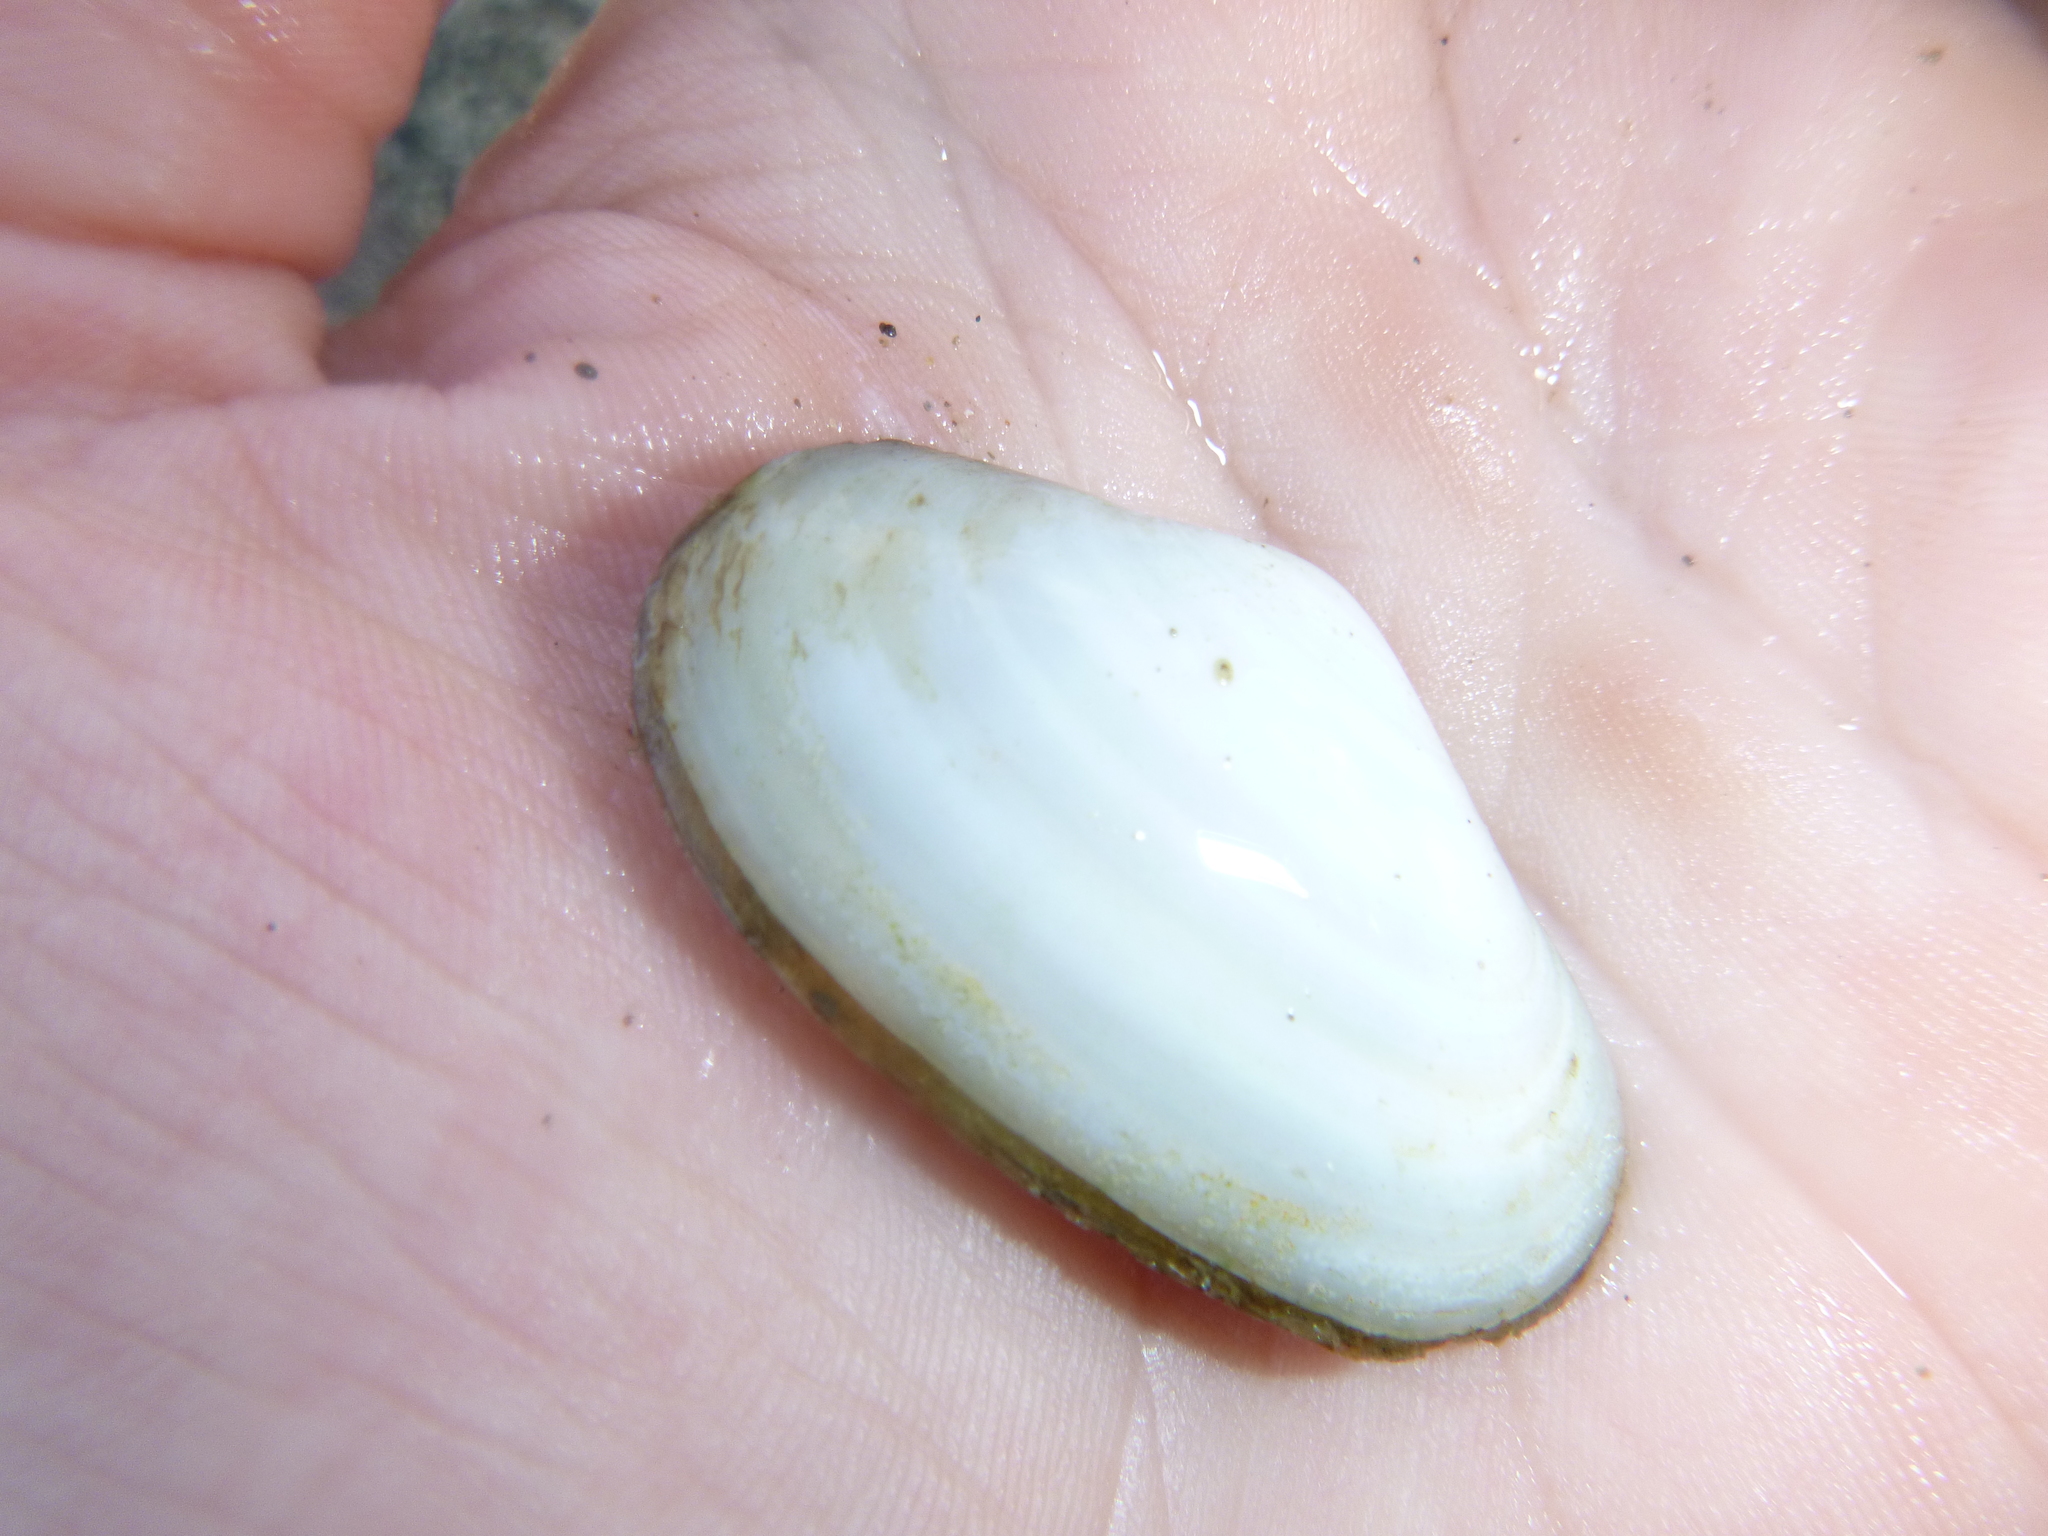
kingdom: Animalia
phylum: Mollusca
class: Bivalvia
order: Venerida
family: Mesodesmatidae
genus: Paphies
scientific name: Paphies australis
